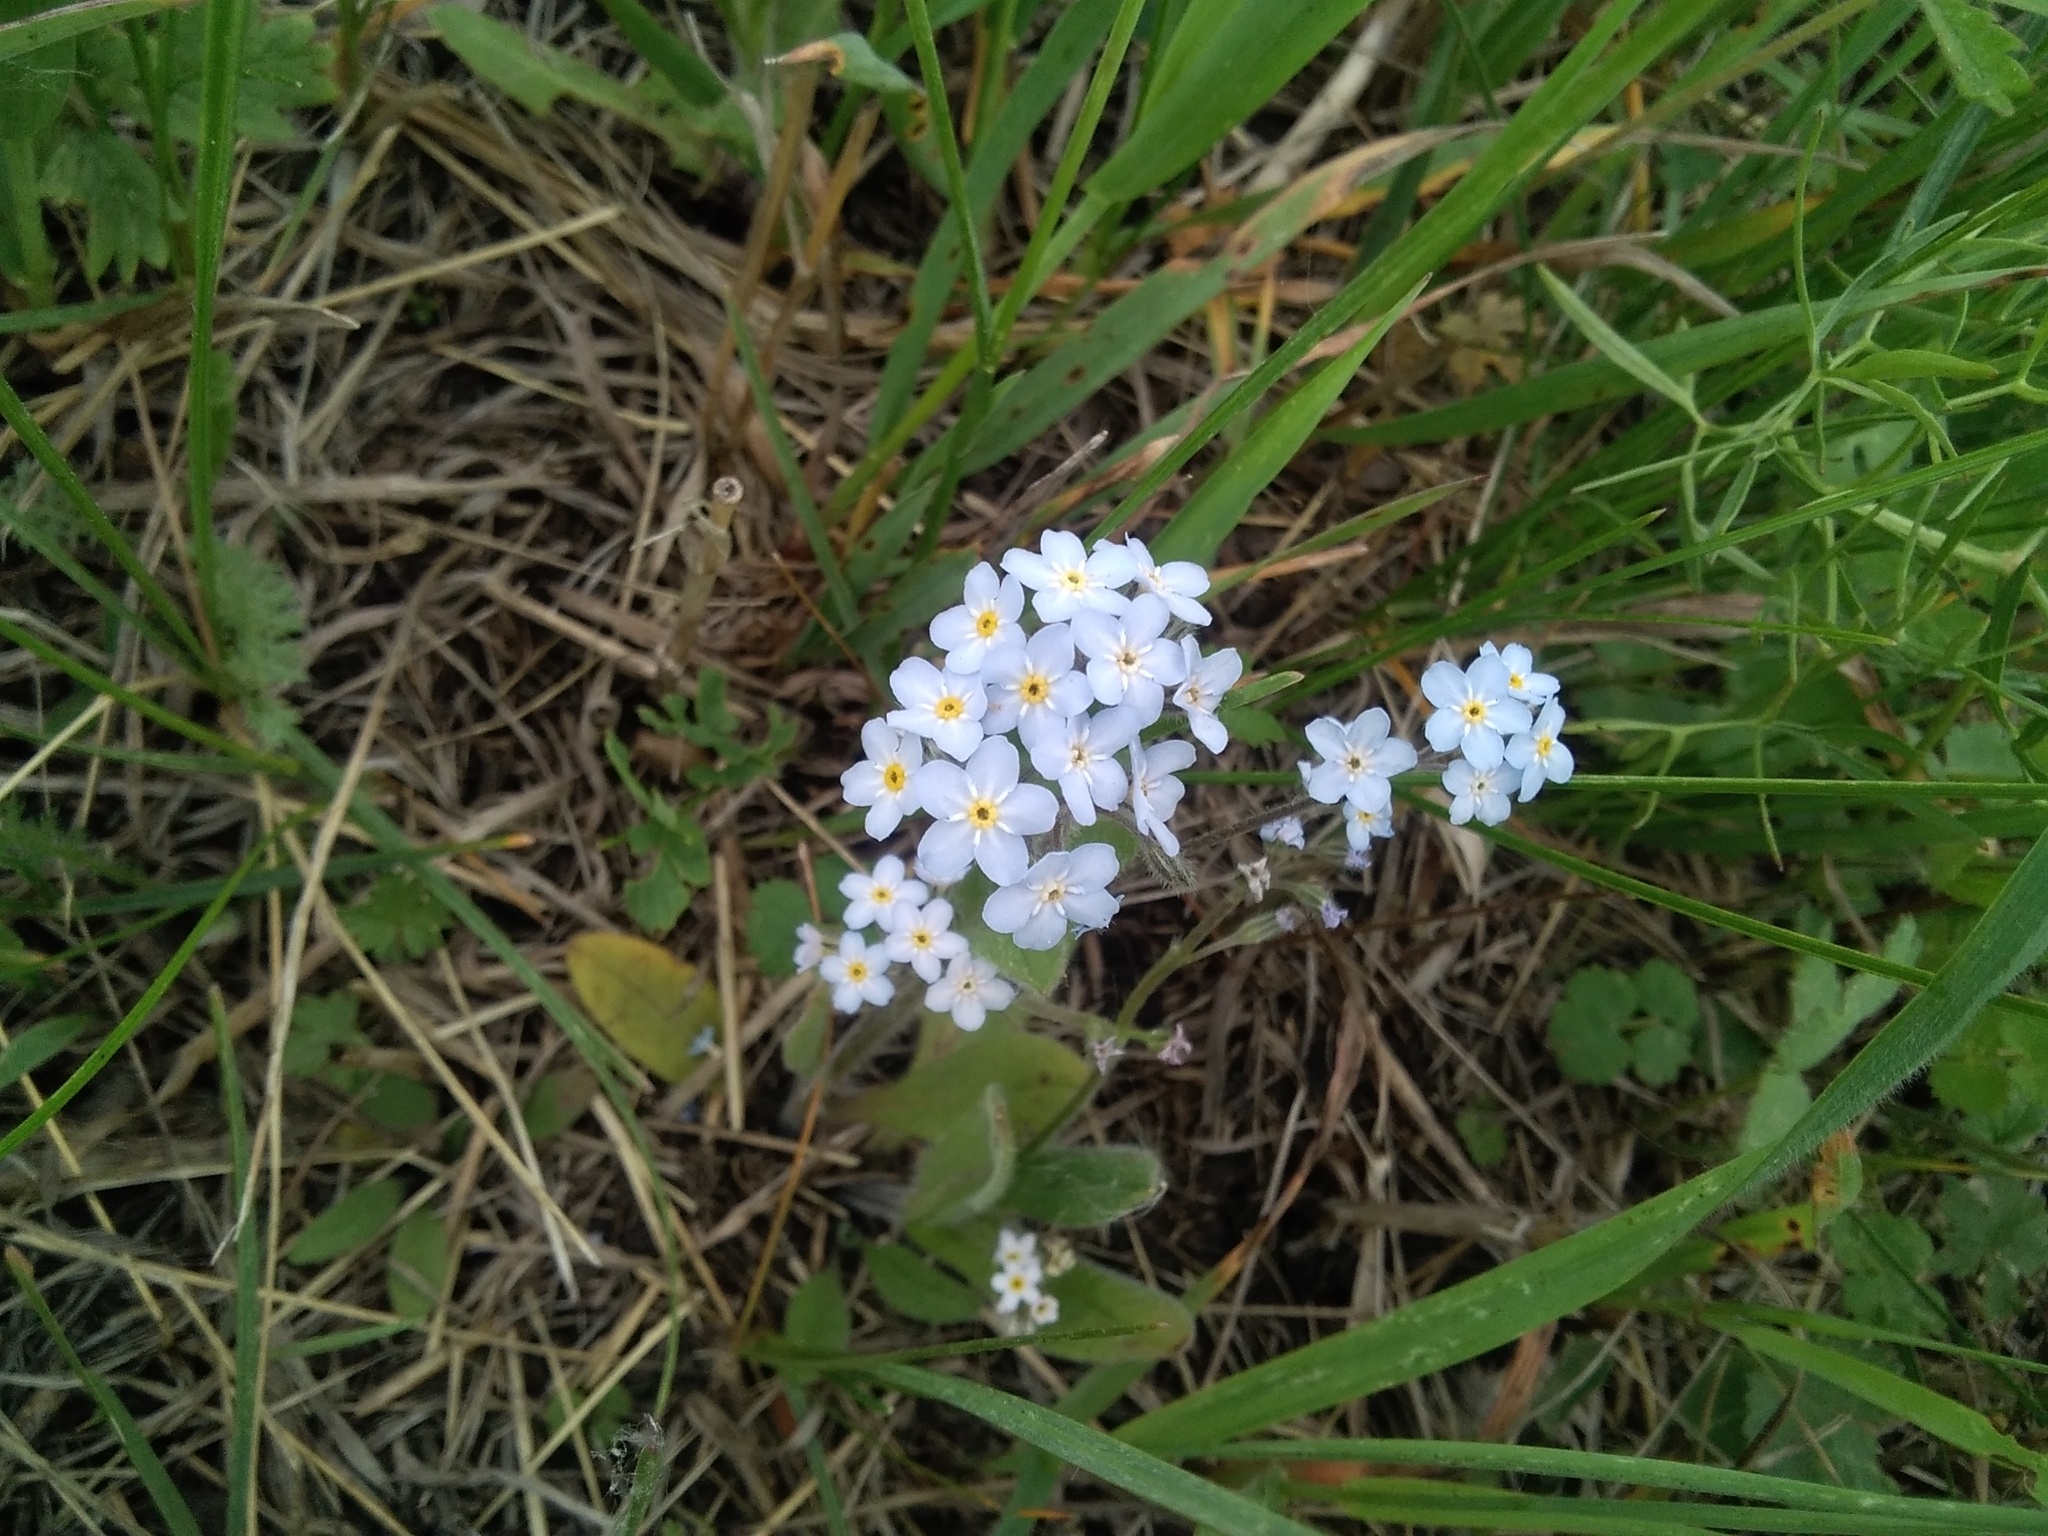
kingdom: Plantae
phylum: Tracheophyta
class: Magnoliopsida
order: Boraginales
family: Boraginaceae
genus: Myosotis
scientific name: Myosotis imitata
